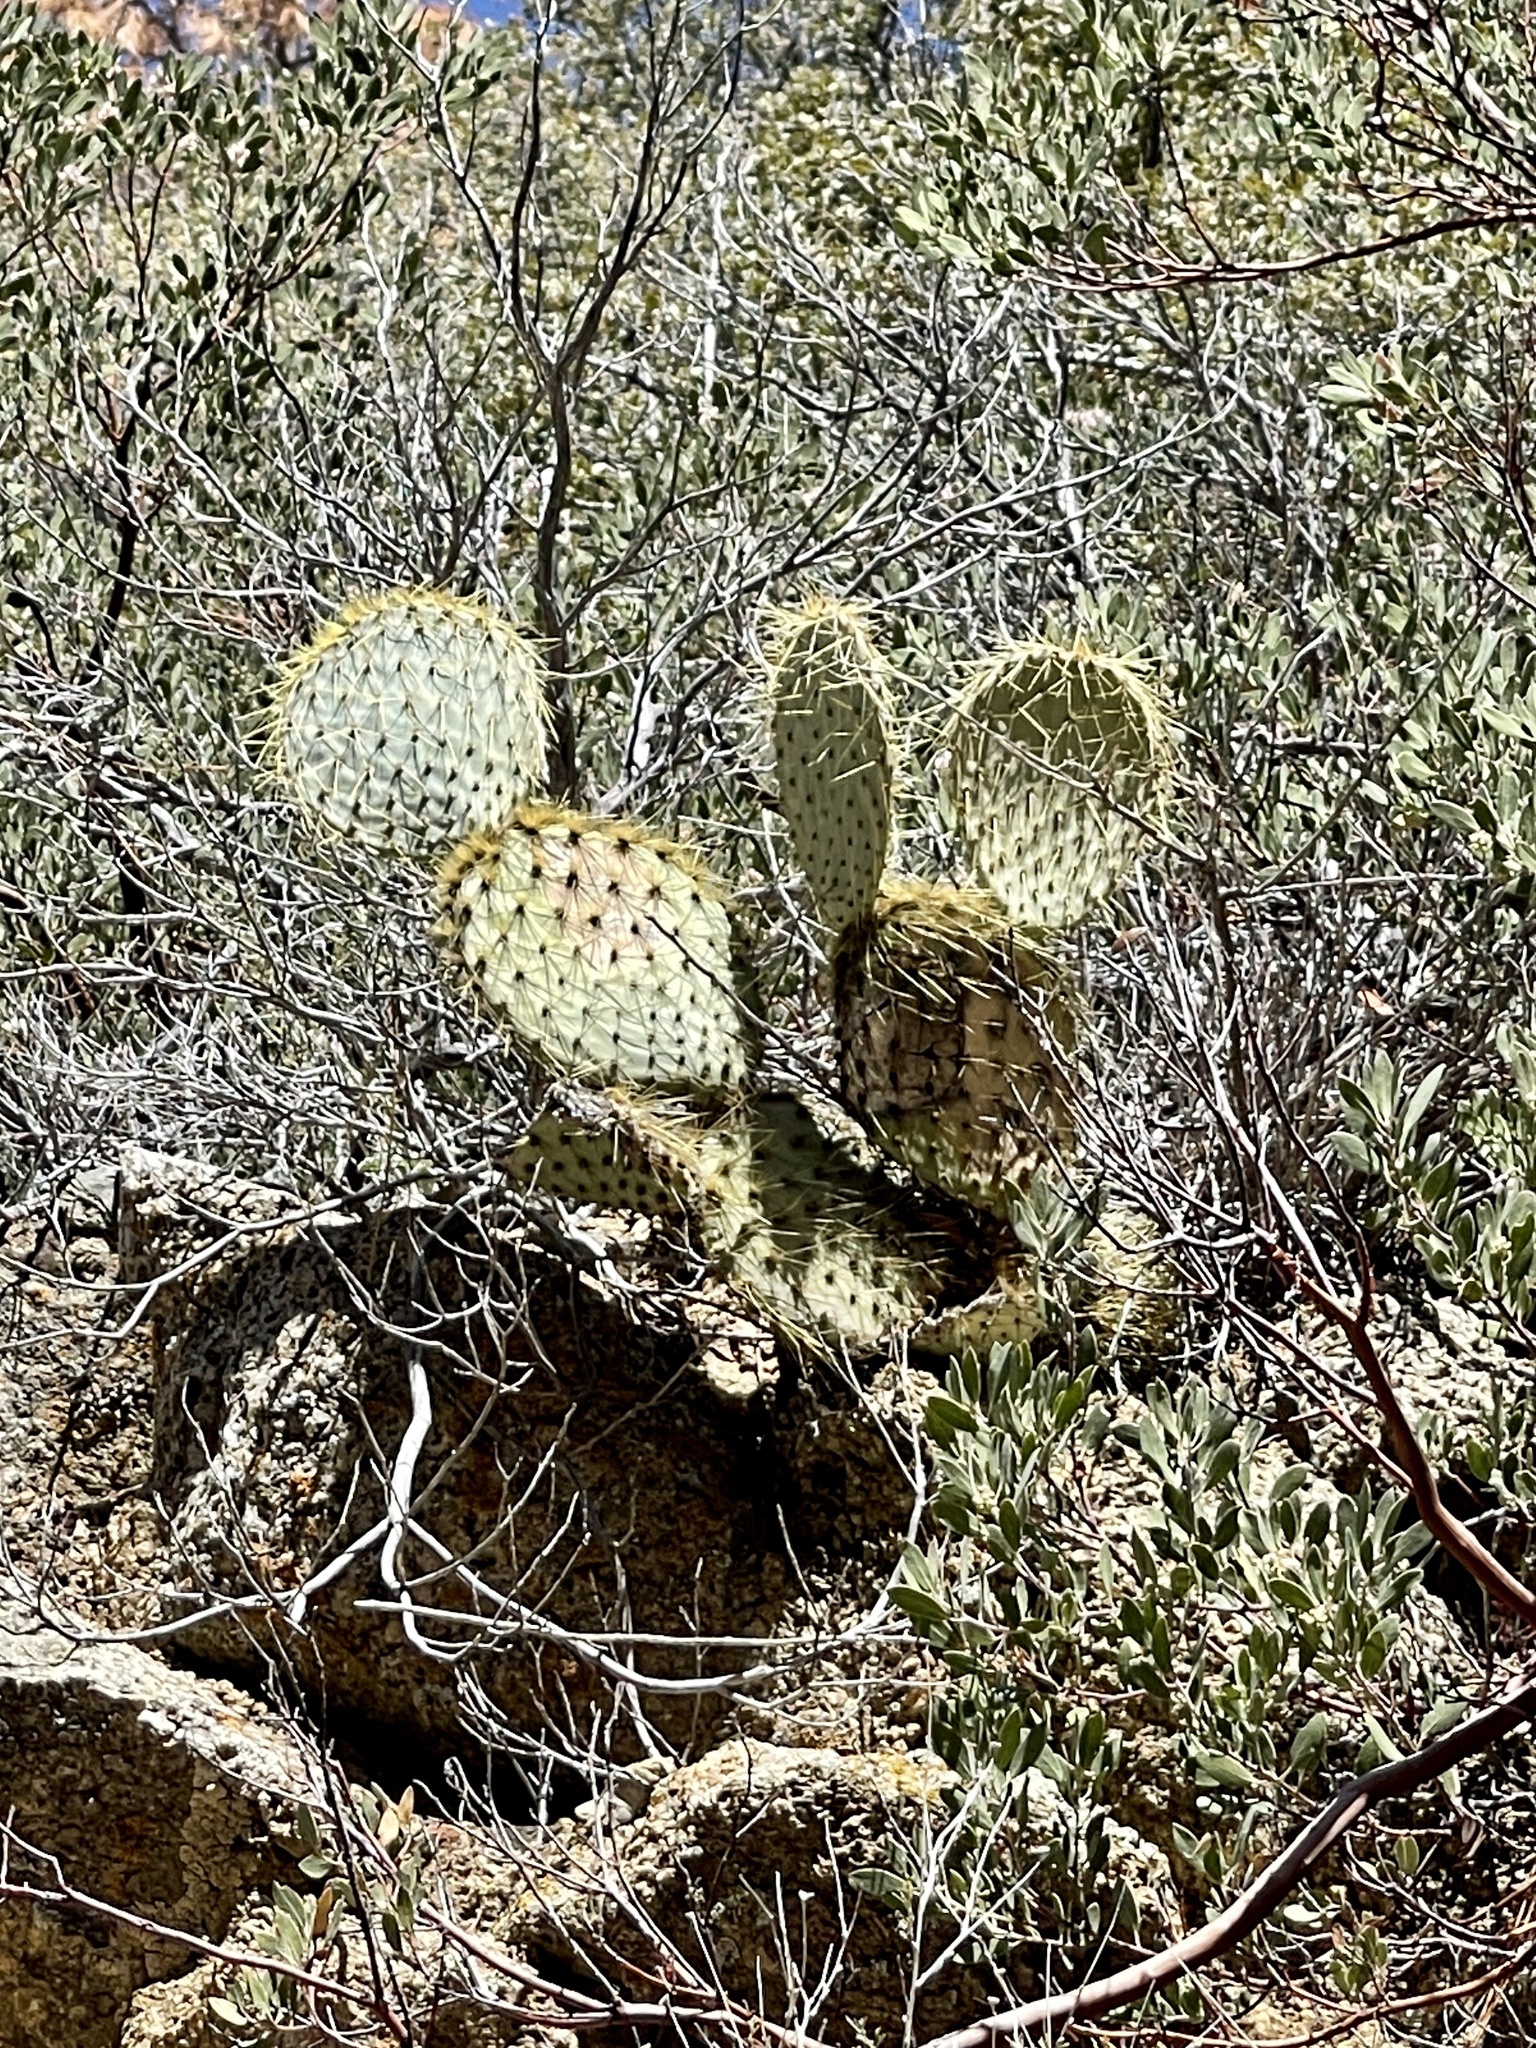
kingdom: Plantae
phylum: Tracheophyta
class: Magnoliopsida
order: Caryophyllales
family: Cactaceae
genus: Opuntia
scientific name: Opuntia chlorotica
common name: Dollar-joint prickly-pear
